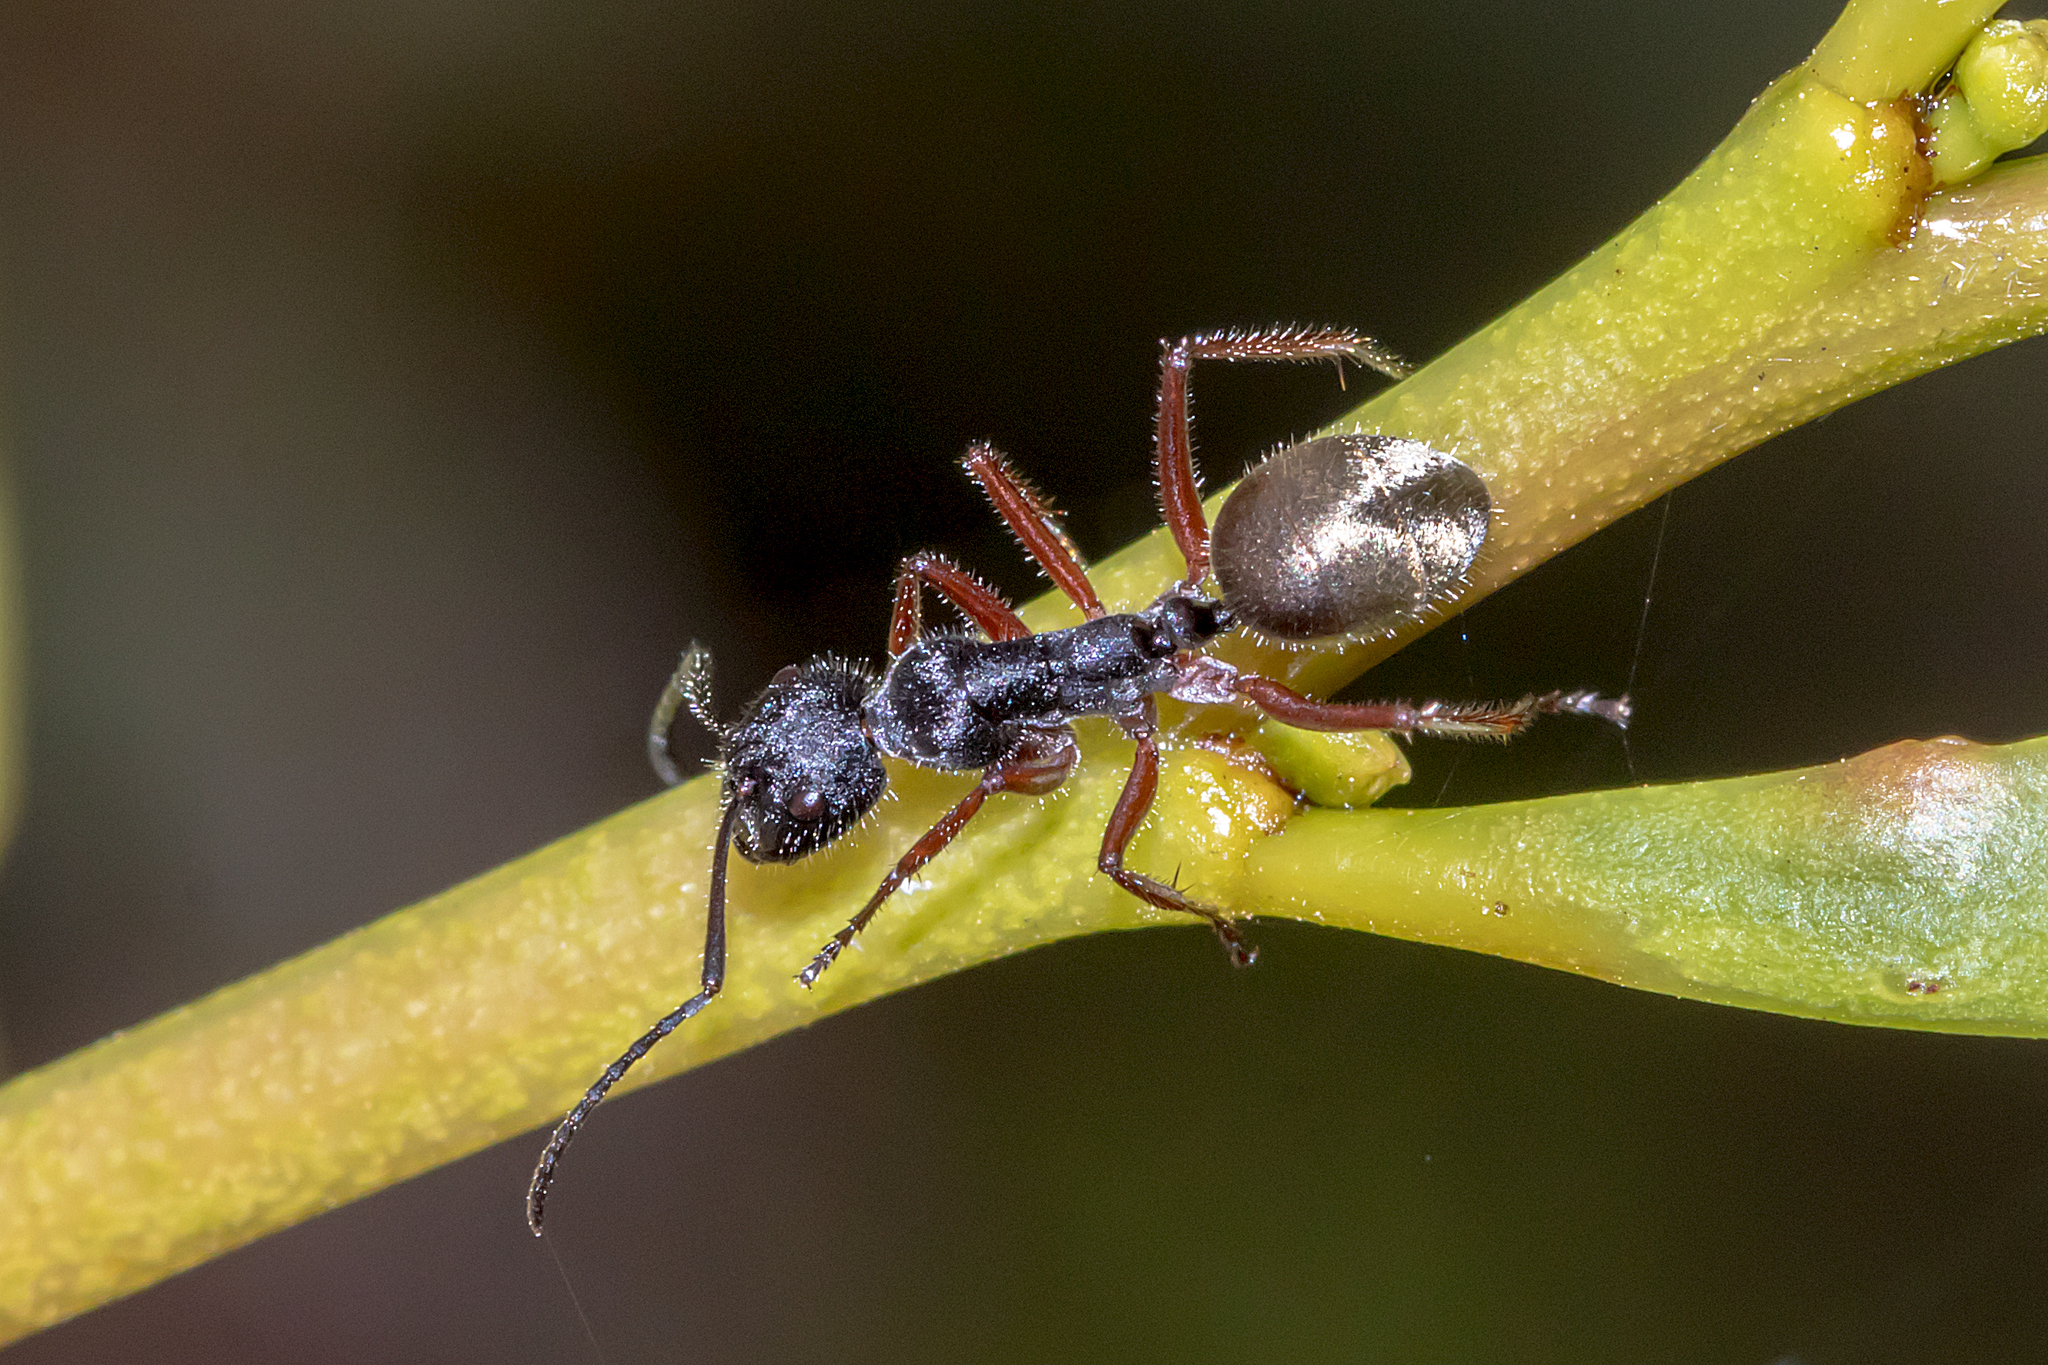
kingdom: Animalia
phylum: Arthropoda
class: Insecta
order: Hymenoptera
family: Formicidae
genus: Camponotus
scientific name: Camponotus suffusus
